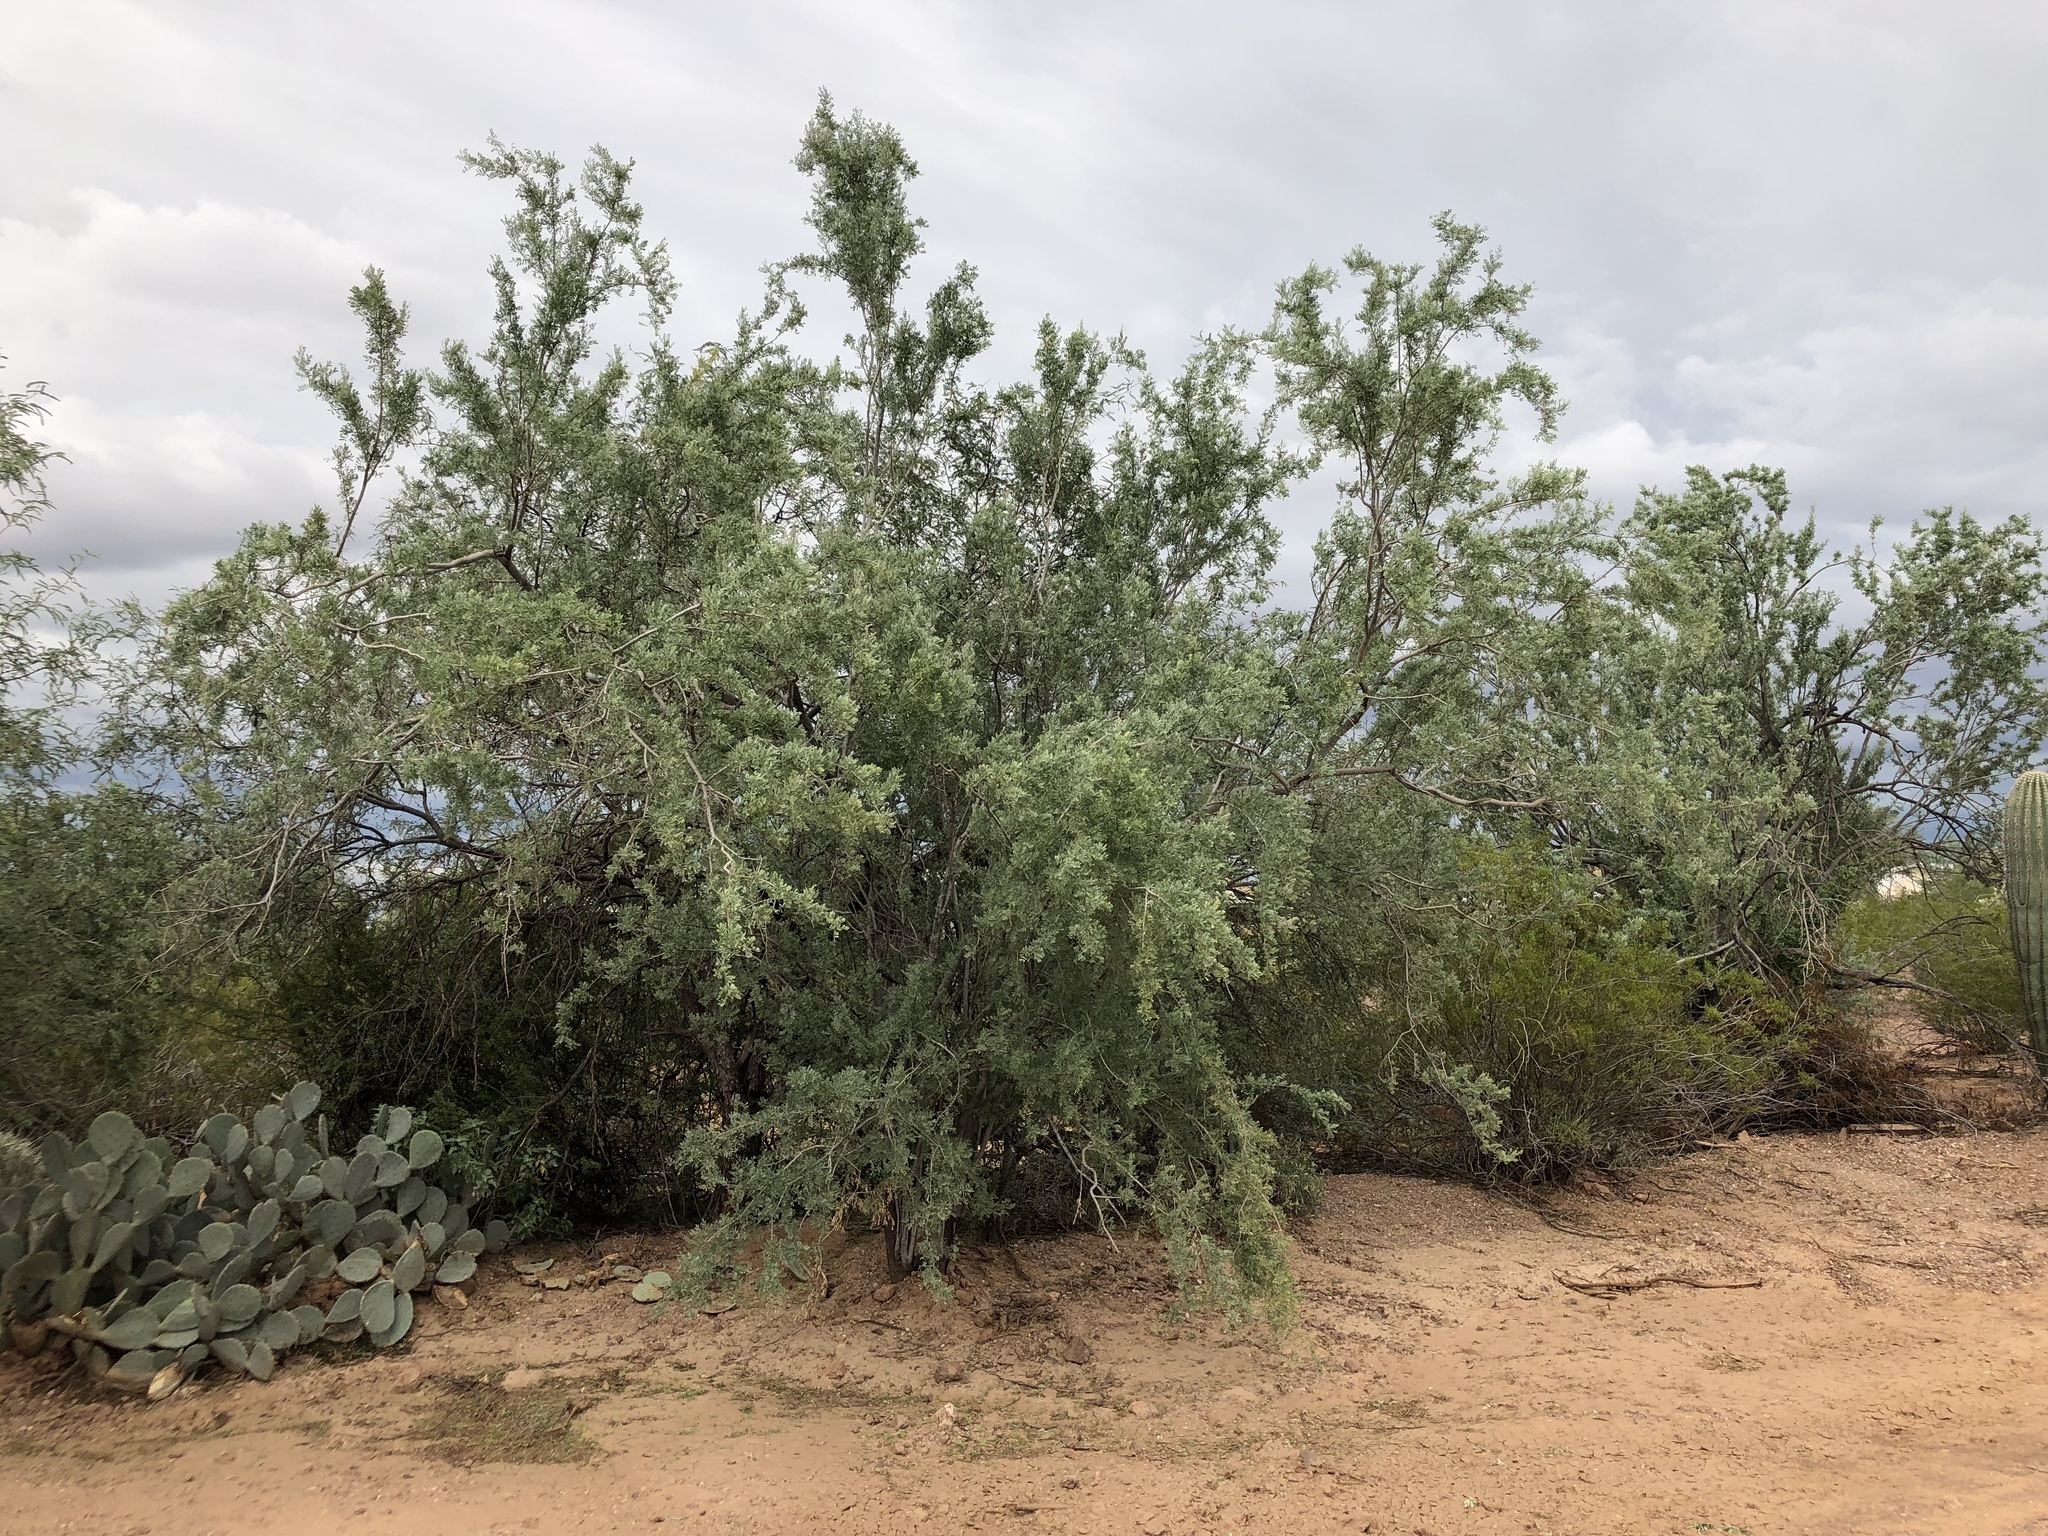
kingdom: Plantae
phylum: Tracheophyta
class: Magnoliopsida
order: Fabales
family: Fabaceae
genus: Olneya
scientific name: Olneya tesota
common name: Desert ironwood
